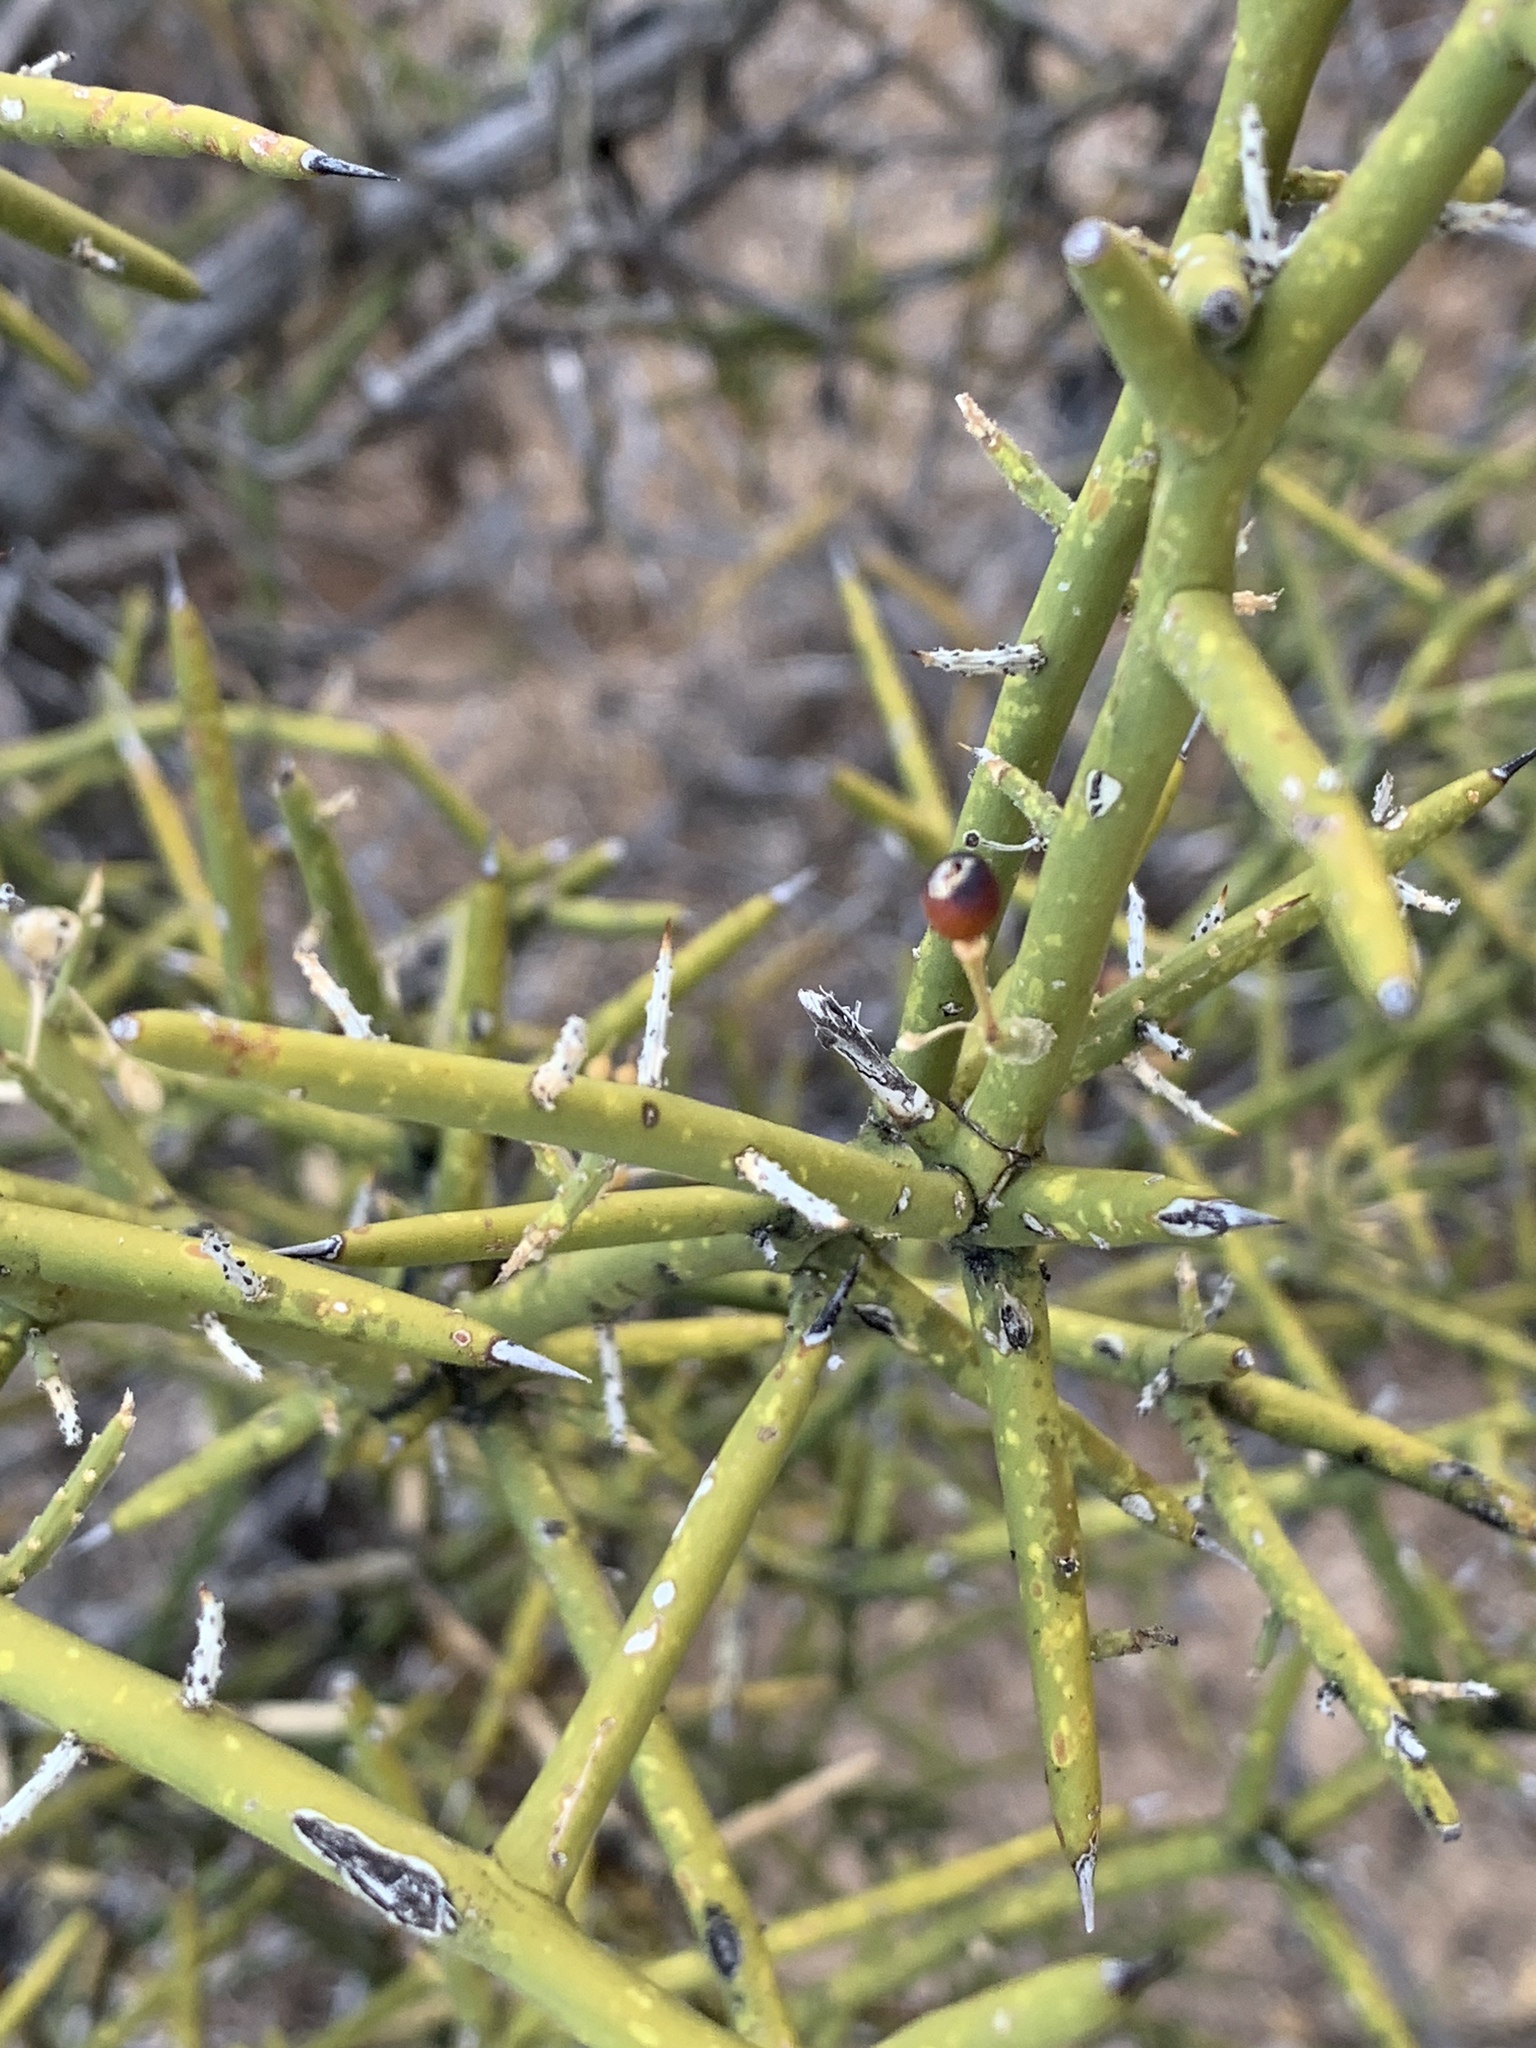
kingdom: Plantae
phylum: Tracheophyta
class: Magnoliopsida
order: Brassicales
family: Koeberliniaceae
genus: Koeberlinia
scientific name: Koeberlinia spinosa
